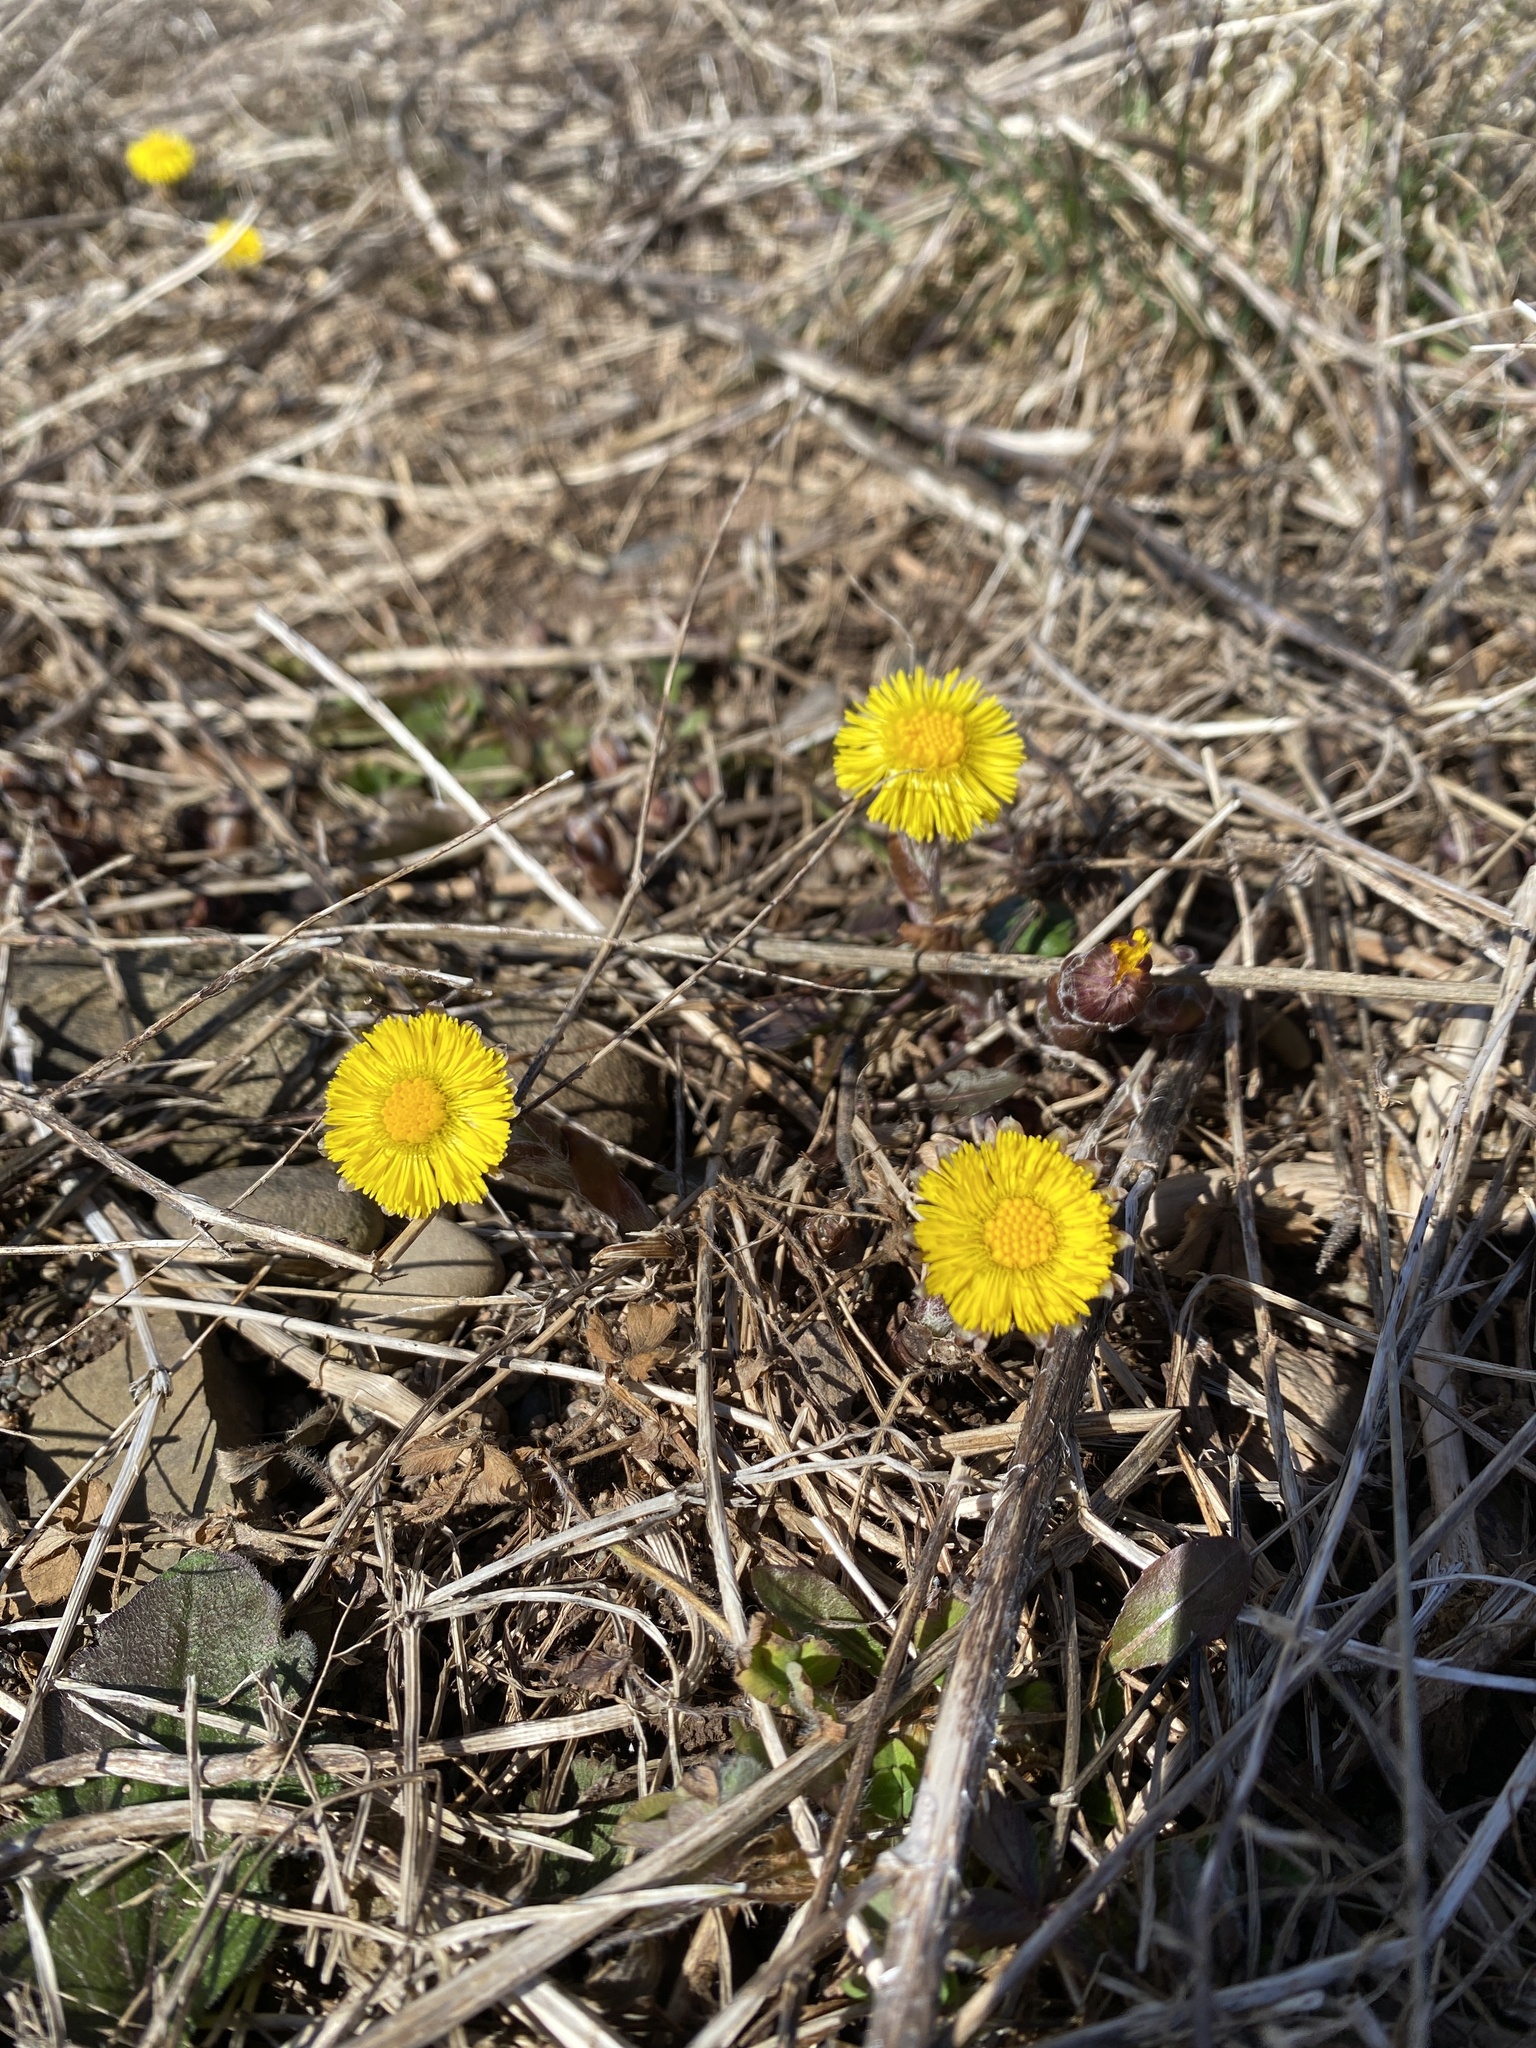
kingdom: Plantae
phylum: Tracheophyta
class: Magnoliopsida
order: Asterales
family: Asteraceae
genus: Tussilago
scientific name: Tussilago farfara
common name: Coltsfoot
